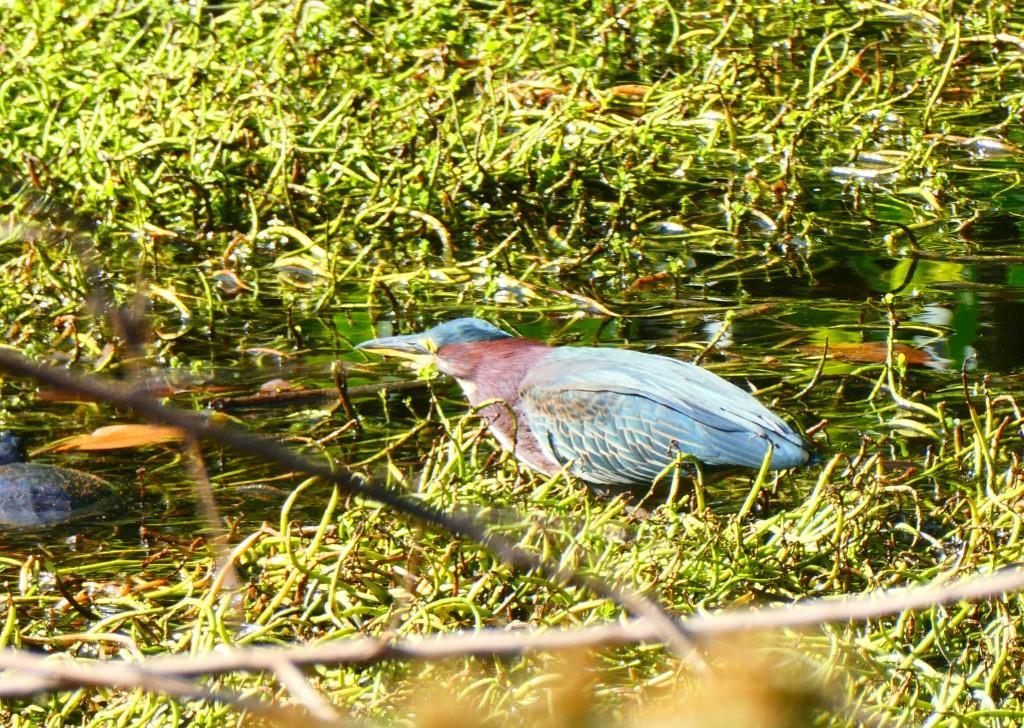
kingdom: Animalia
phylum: Chordata
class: Aves
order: Pelecaniformes
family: Ardeidae
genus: Butorides
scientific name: Butorides virescens
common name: Green heron
